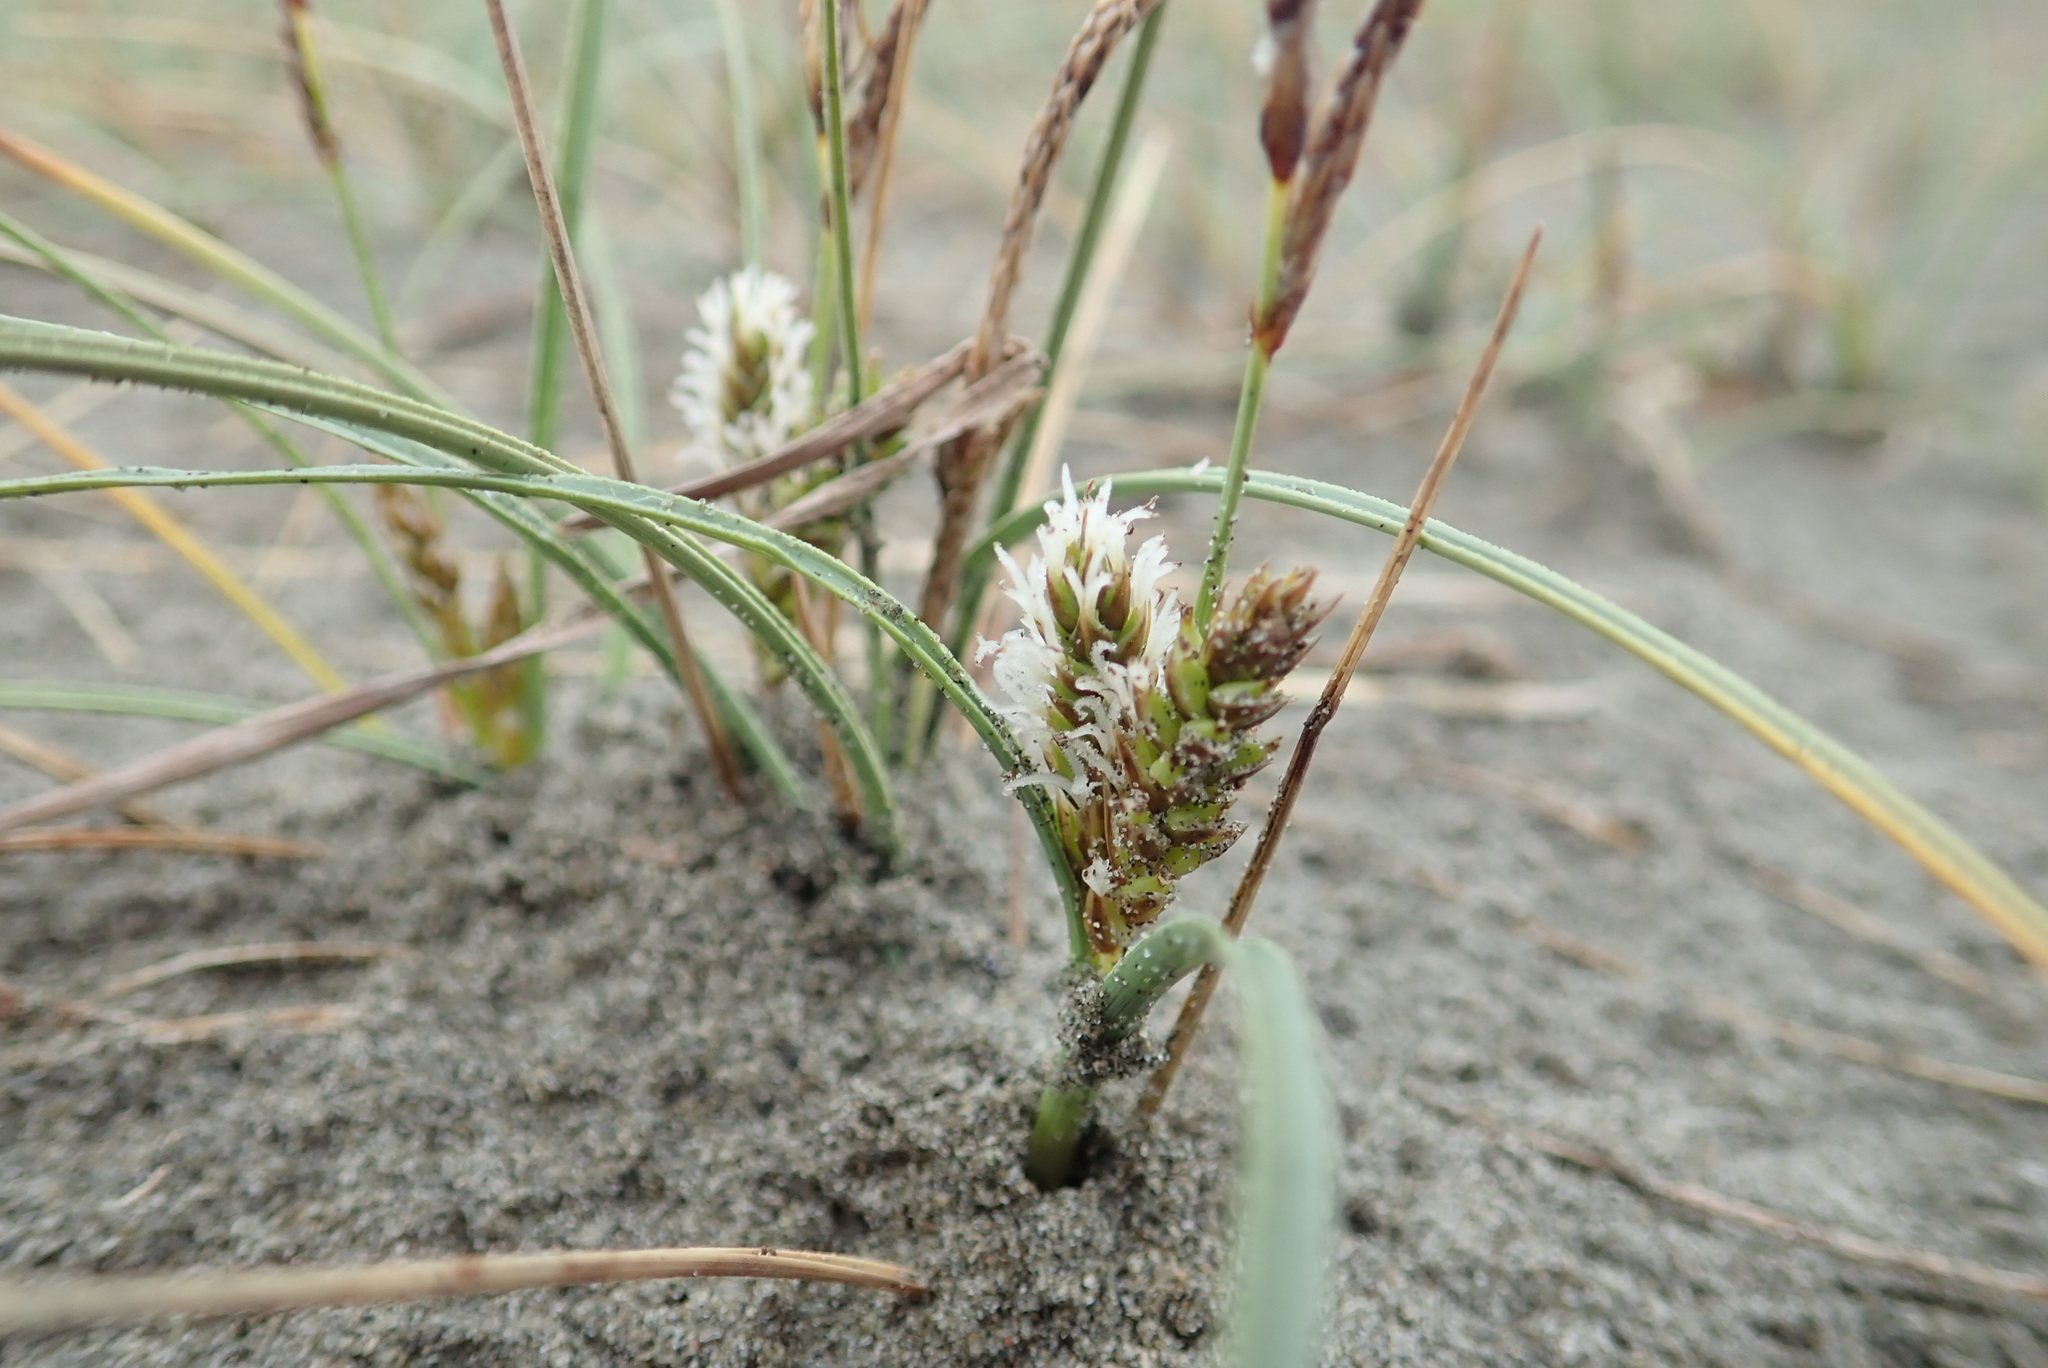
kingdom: Plantae
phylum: Tracheophyta
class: Liliopsida
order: Poales
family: Cyperaceae
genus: Carex
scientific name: Carex pumila
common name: Dwarf sedge
